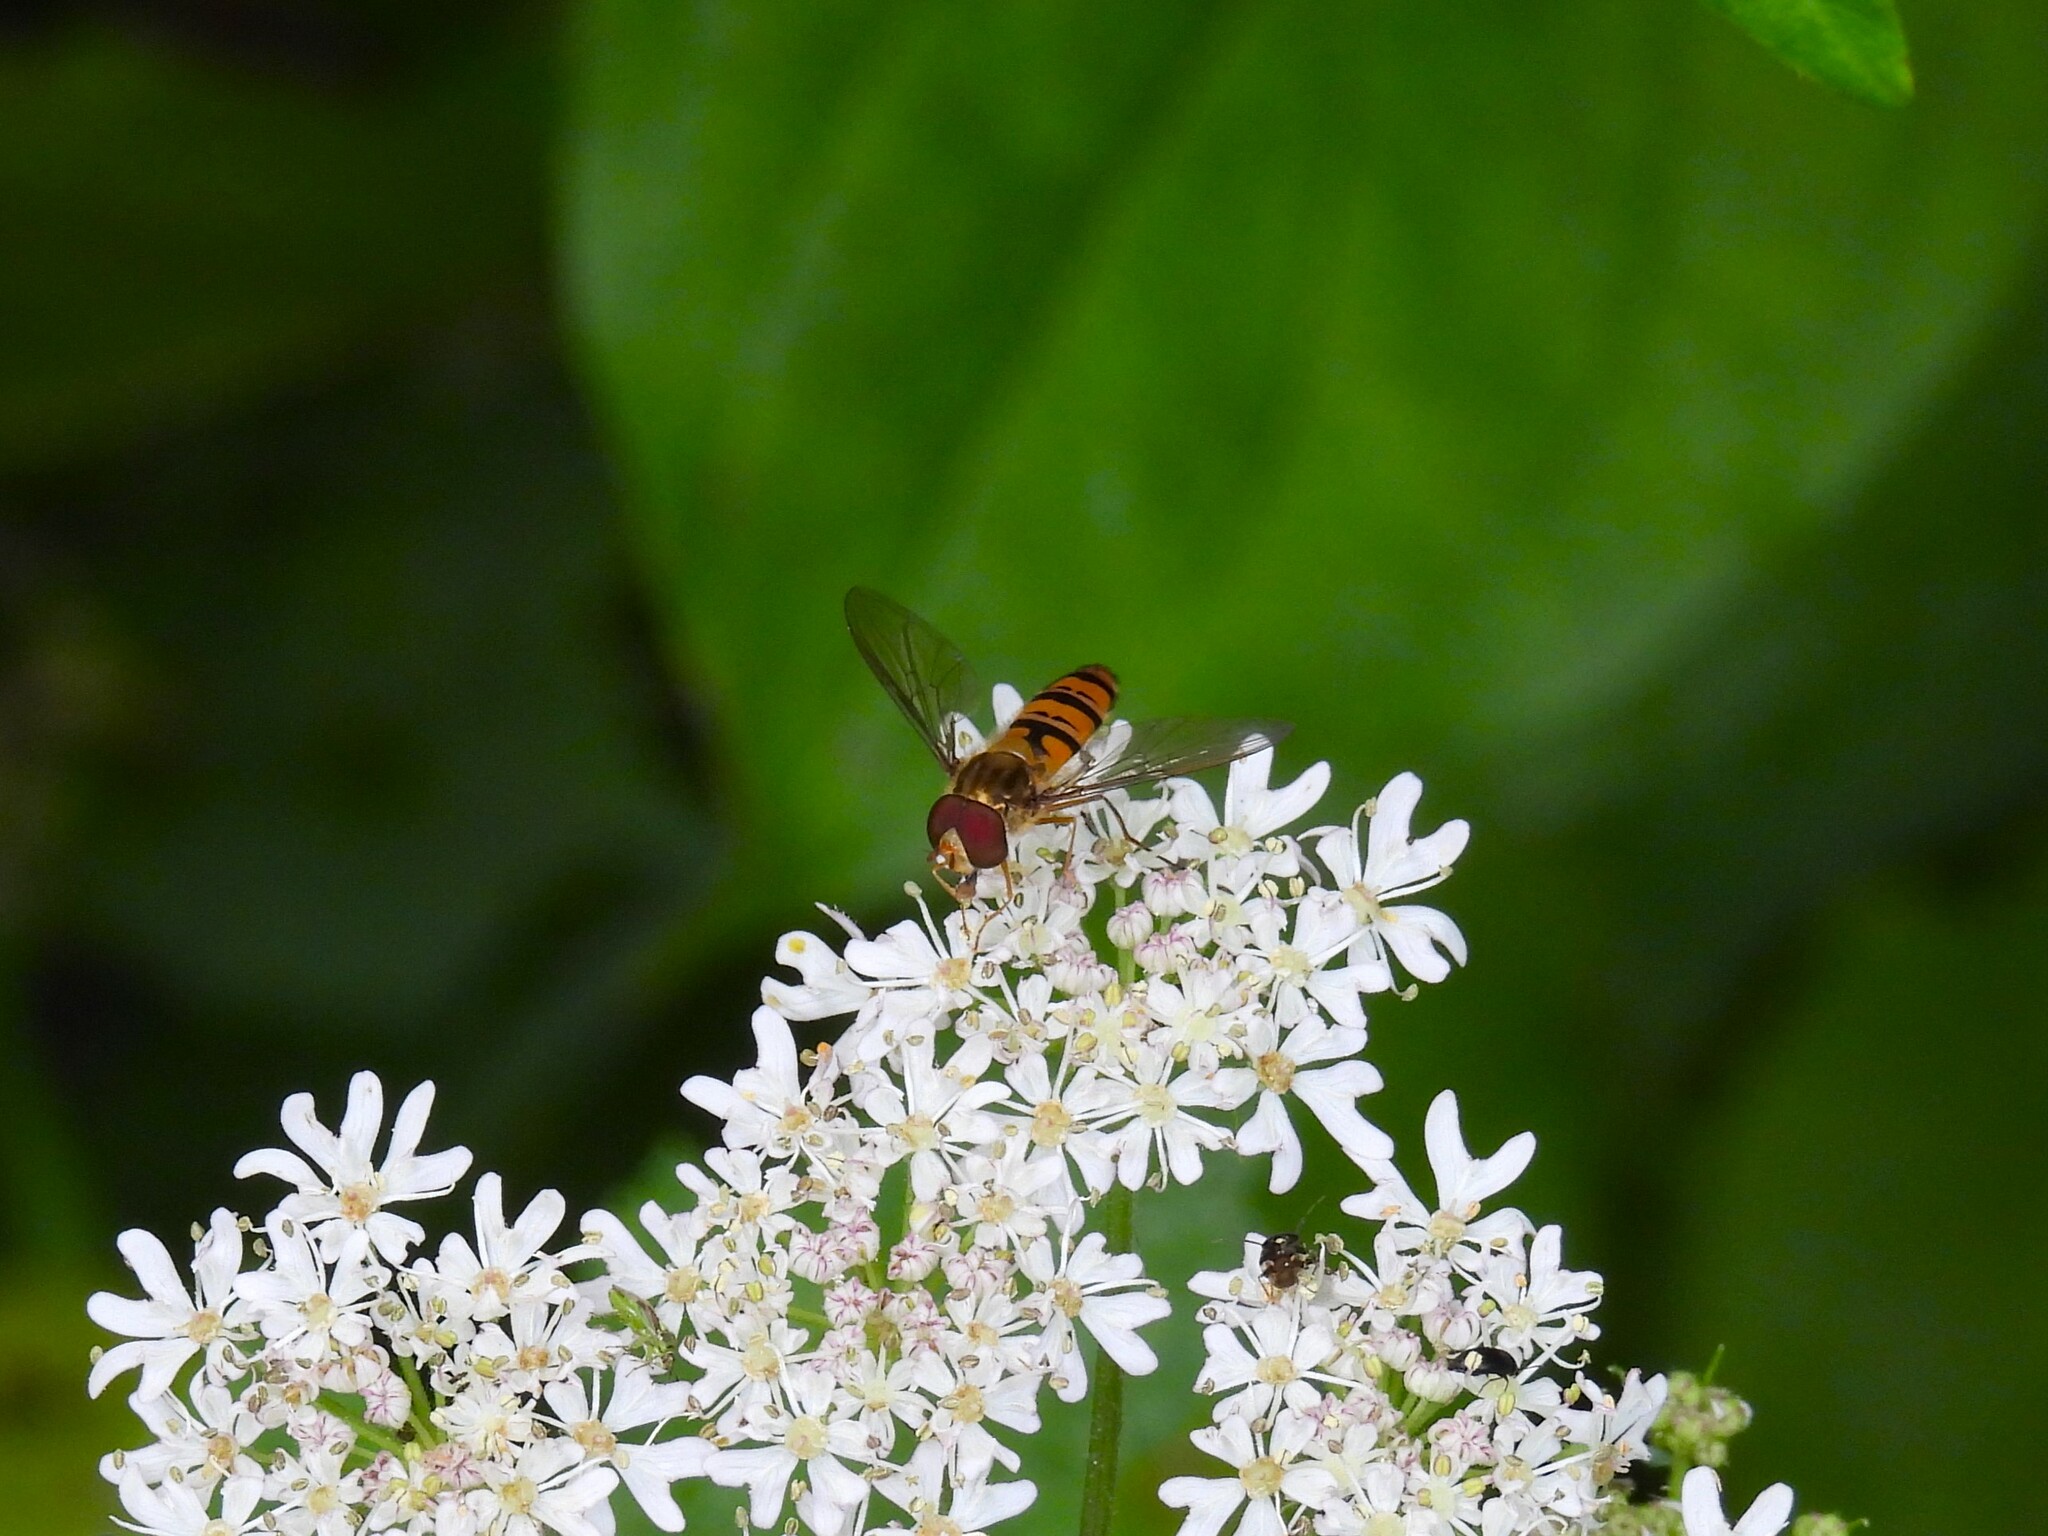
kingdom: Animalia
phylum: Arthropoda
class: Insecta
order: Diptera
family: Syrphidae
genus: Episyrphus
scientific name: Episyrphus balteatus
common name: Marmalade hoverfly
